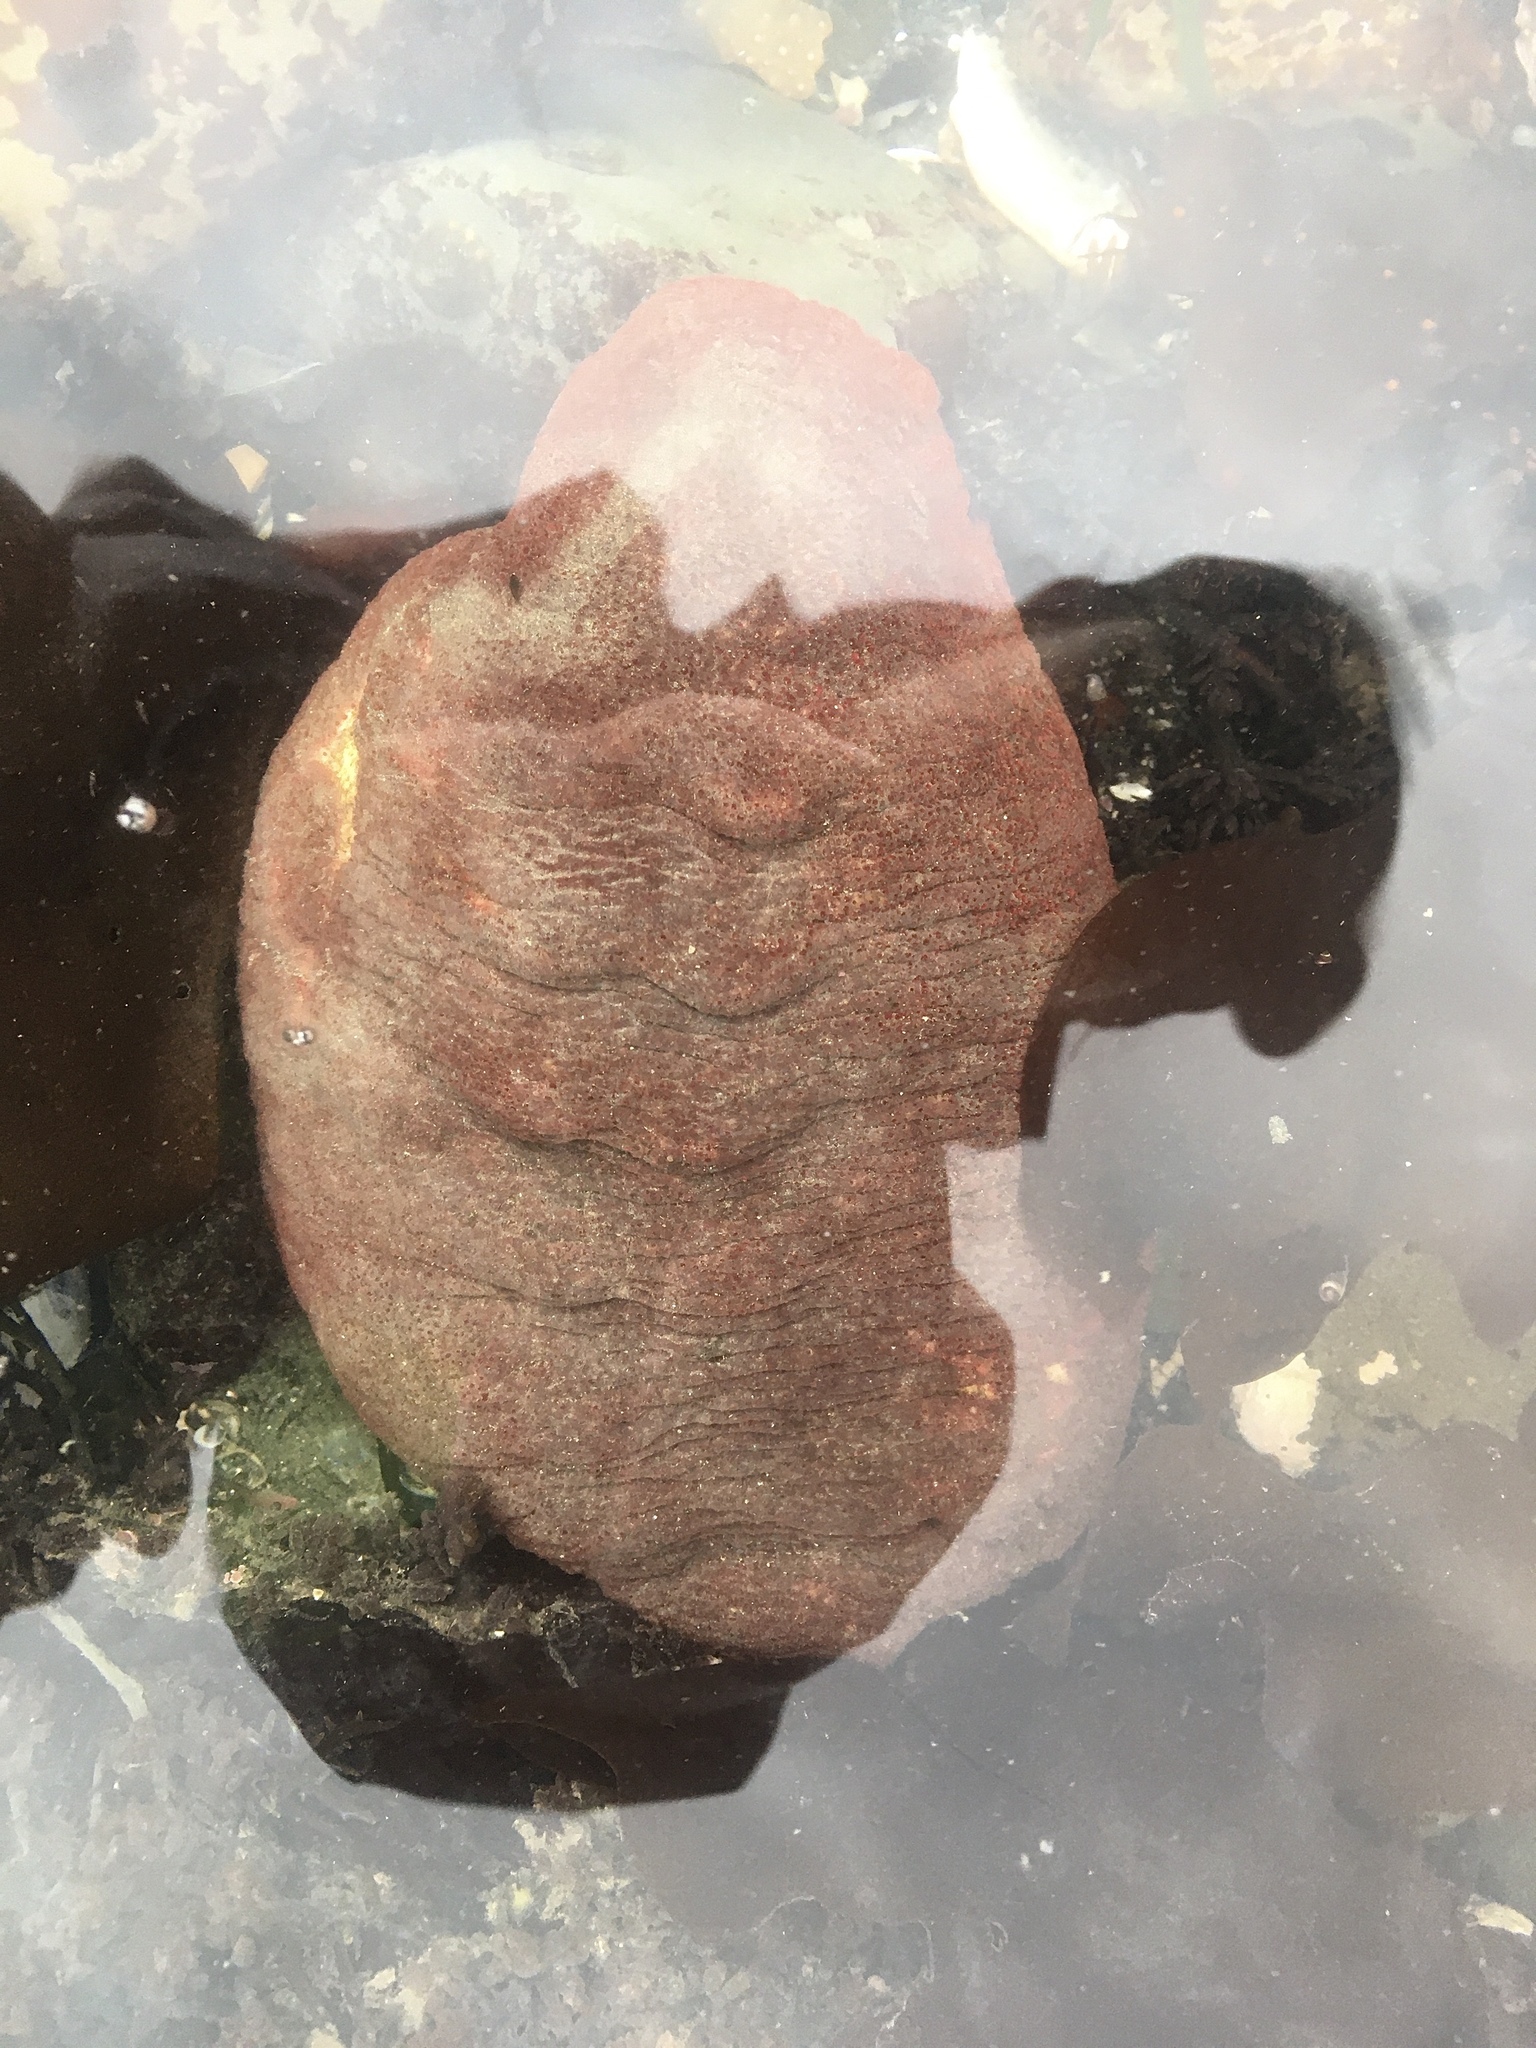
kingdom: Animalia
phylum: Mollusca
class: Polyplacophora
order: Chitonida
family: Acanthochitonidae
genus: Cryptochiton
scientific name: Cryptochiton stelleri
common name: Giant pacific chiton
